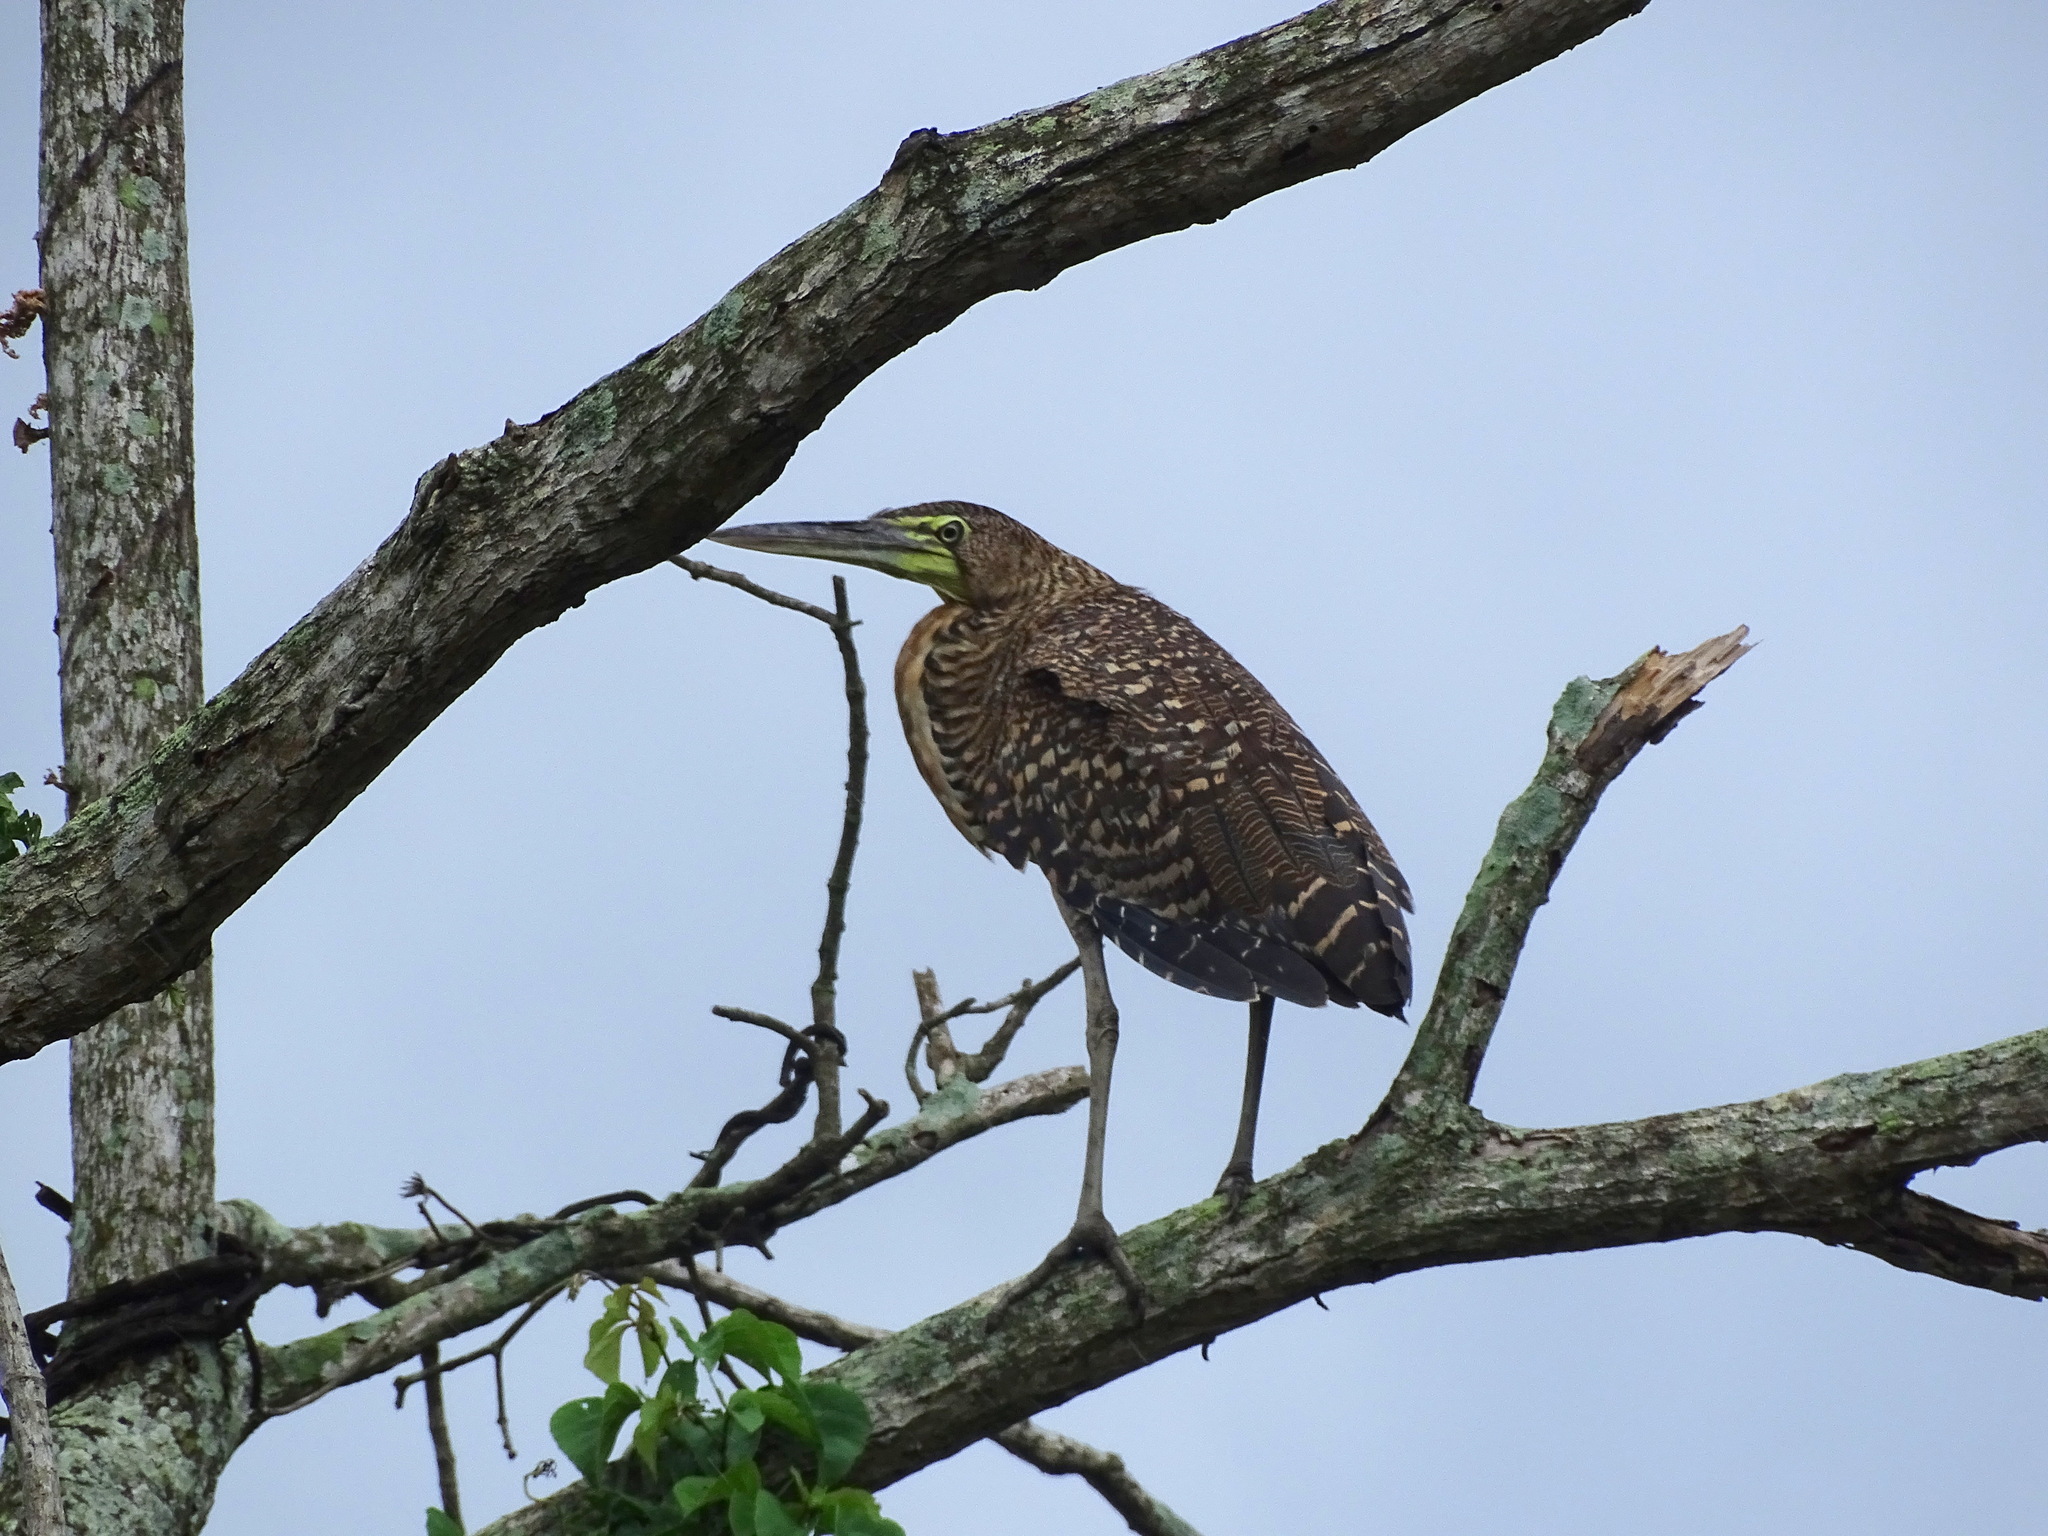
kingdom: Animalia
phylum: Chordata
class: Aves
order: Pelecaniformes
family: Ardeidae
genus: Tigrisoma
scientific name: Tigrisoma mexicanum
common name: Bare-throated tiger-heron
